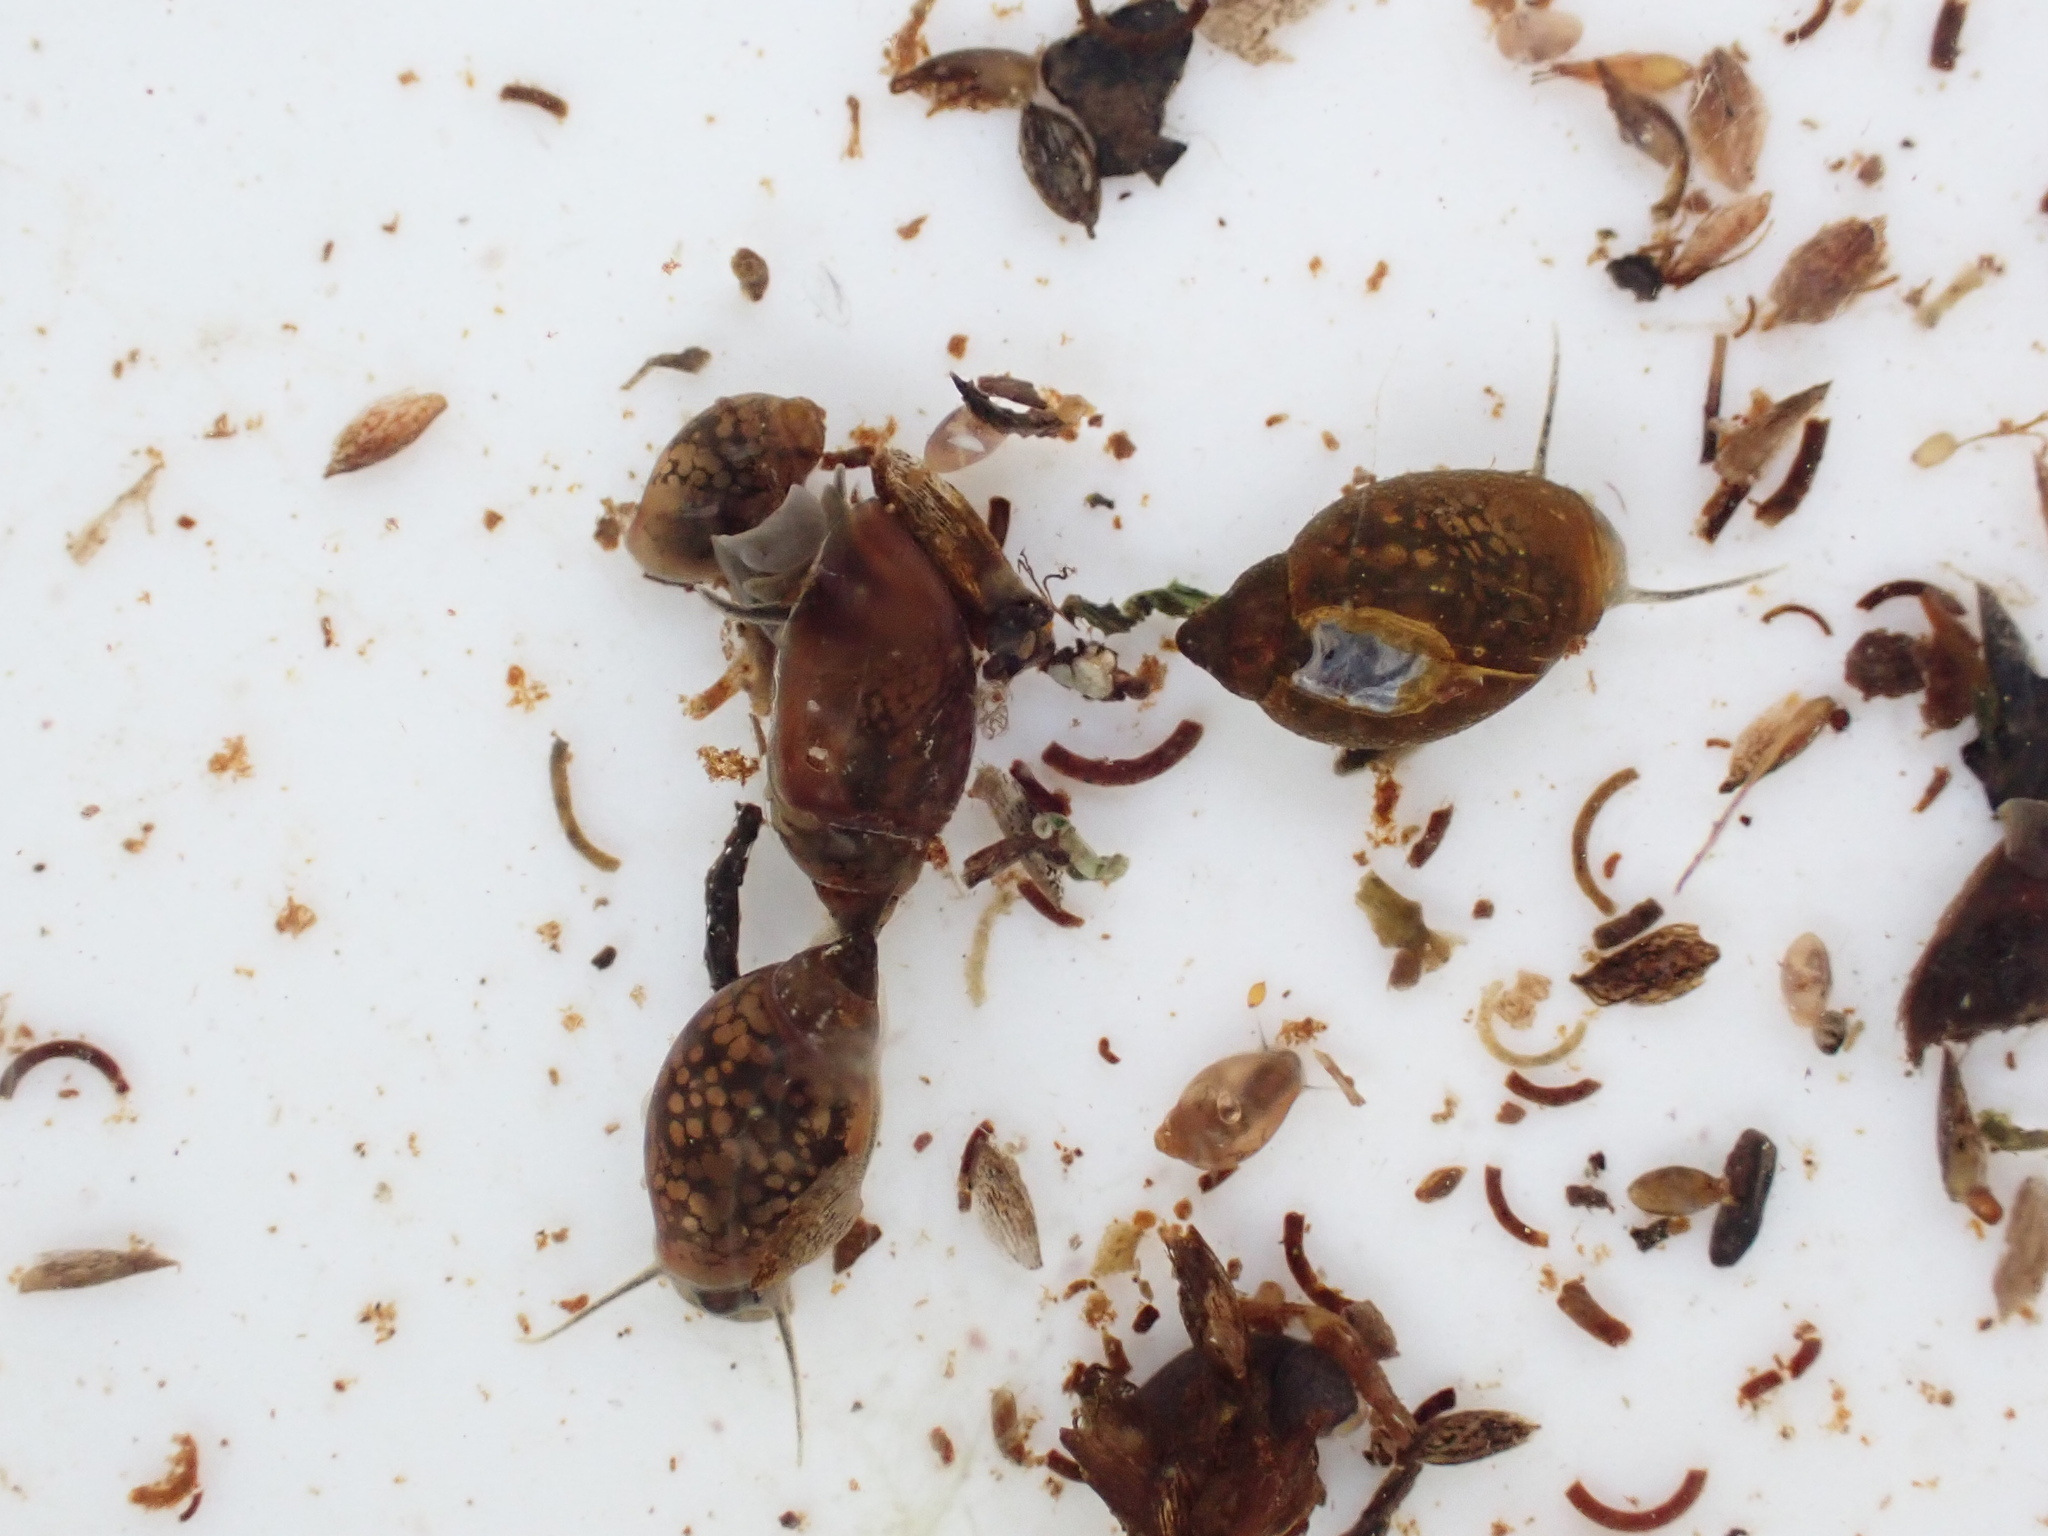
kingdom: Animalia
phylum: Mollusca
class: Gastropoda
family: Physidae
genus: Physella
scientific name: Physella acuta
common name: European physa
